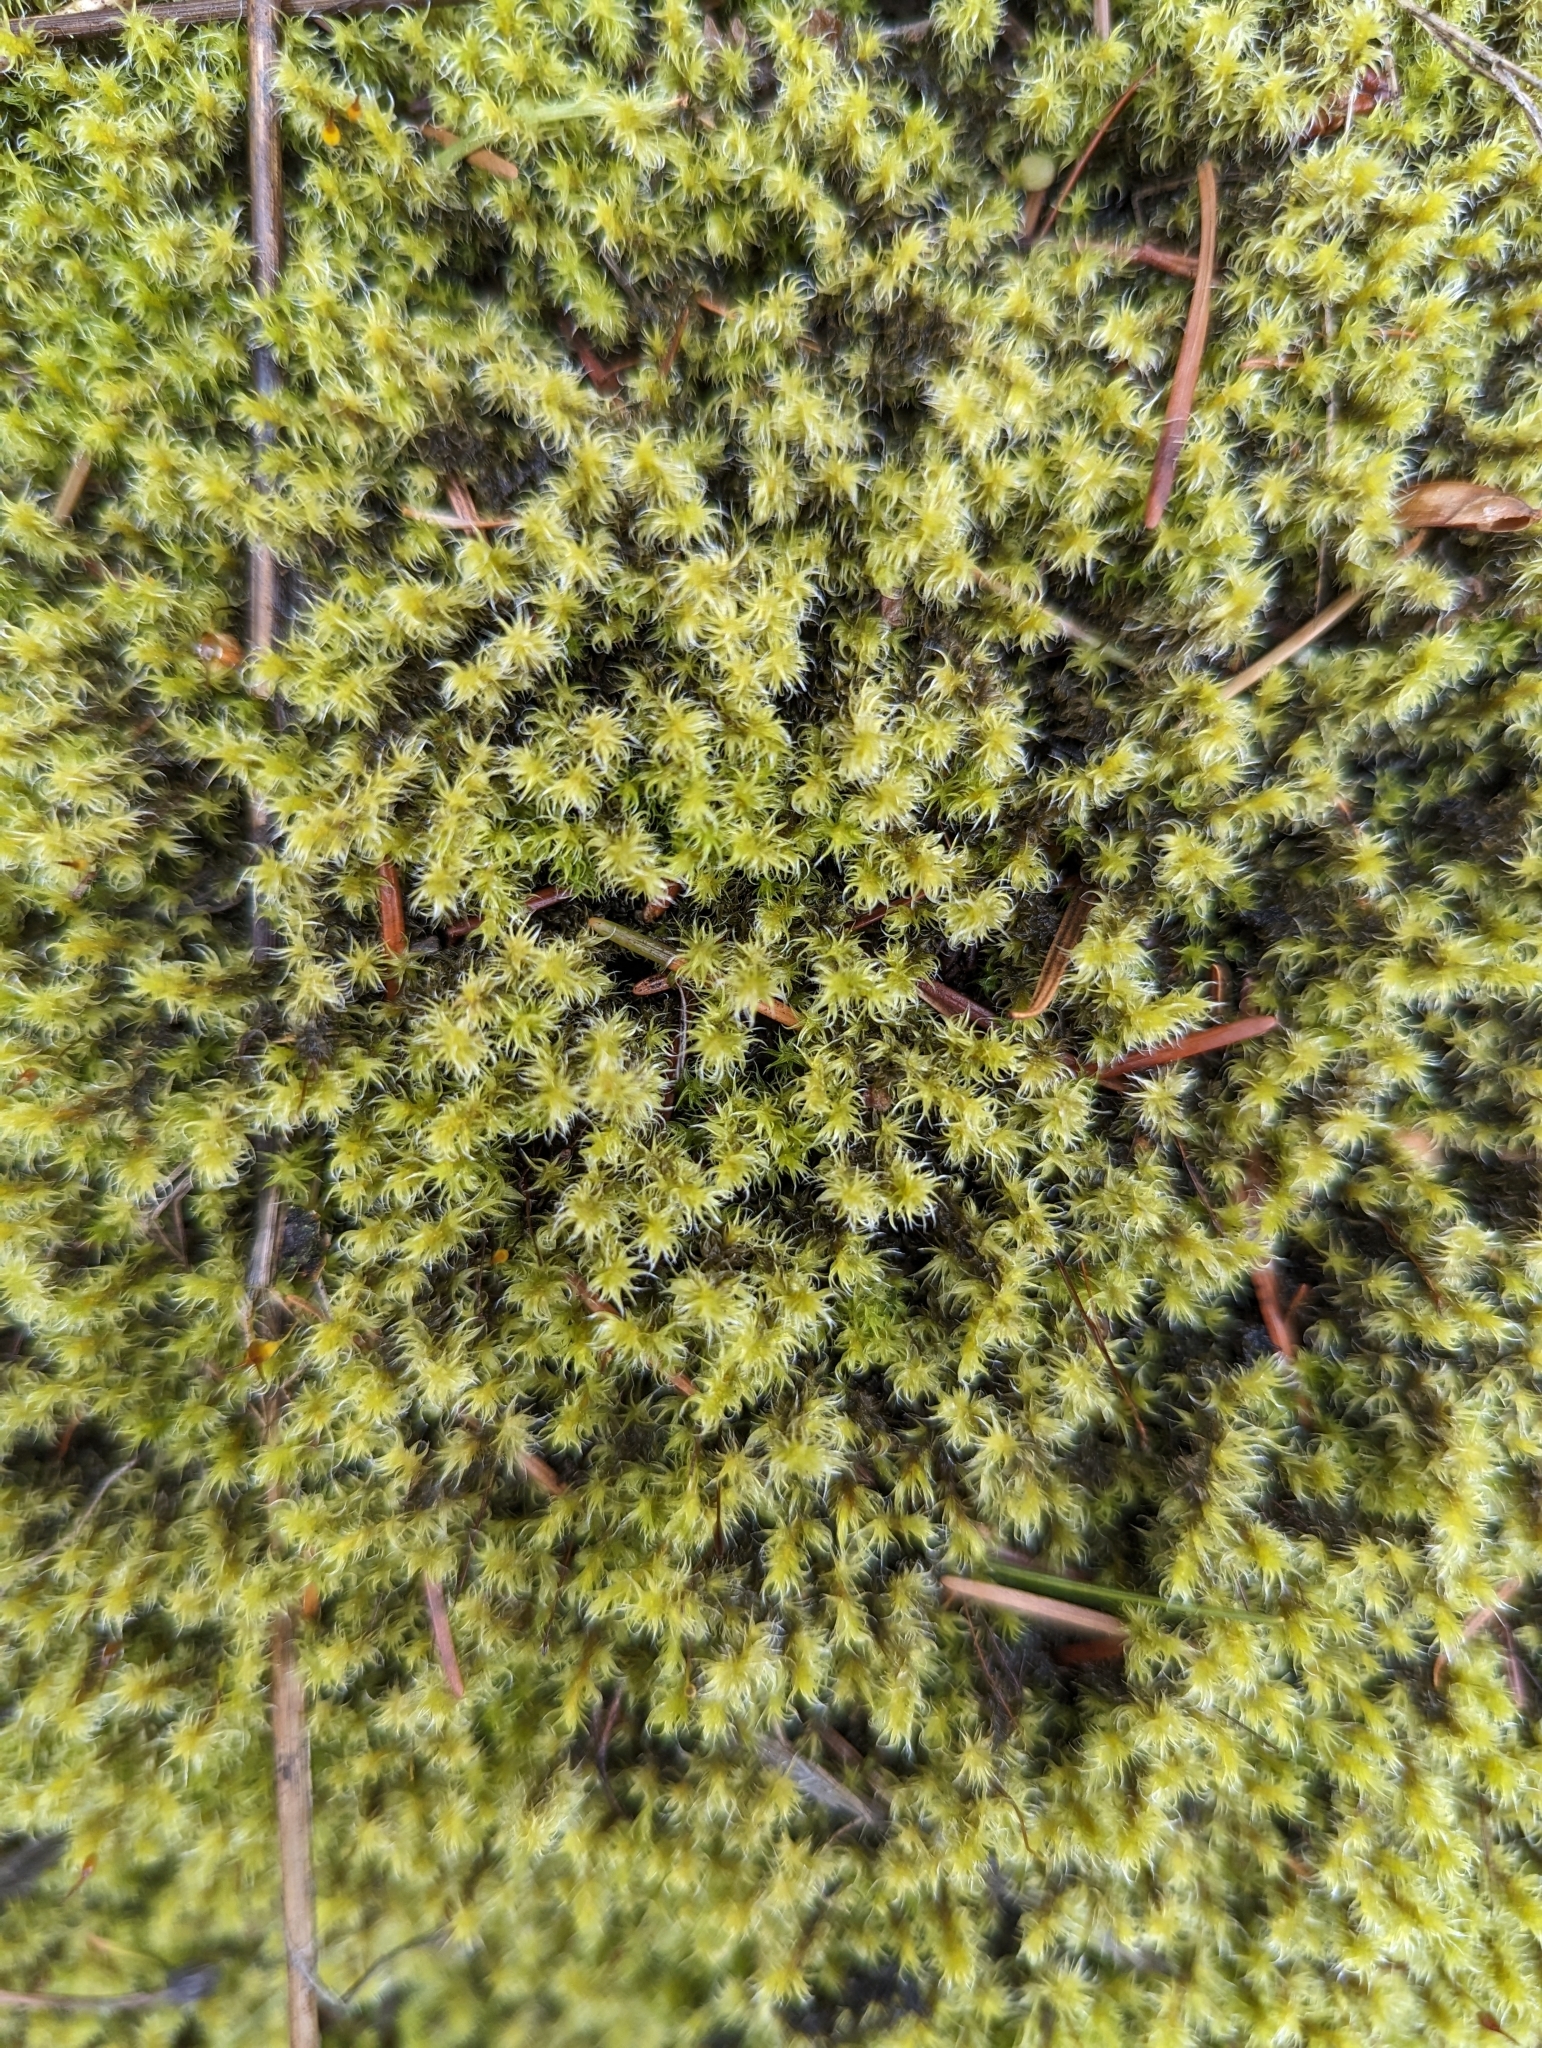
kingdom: Plantae
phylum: Bryophyta
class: Bryopsida
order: Grimmiales
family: Grimmiaceae
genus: Niphotrichum
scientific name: Niphotrichum elongatum
